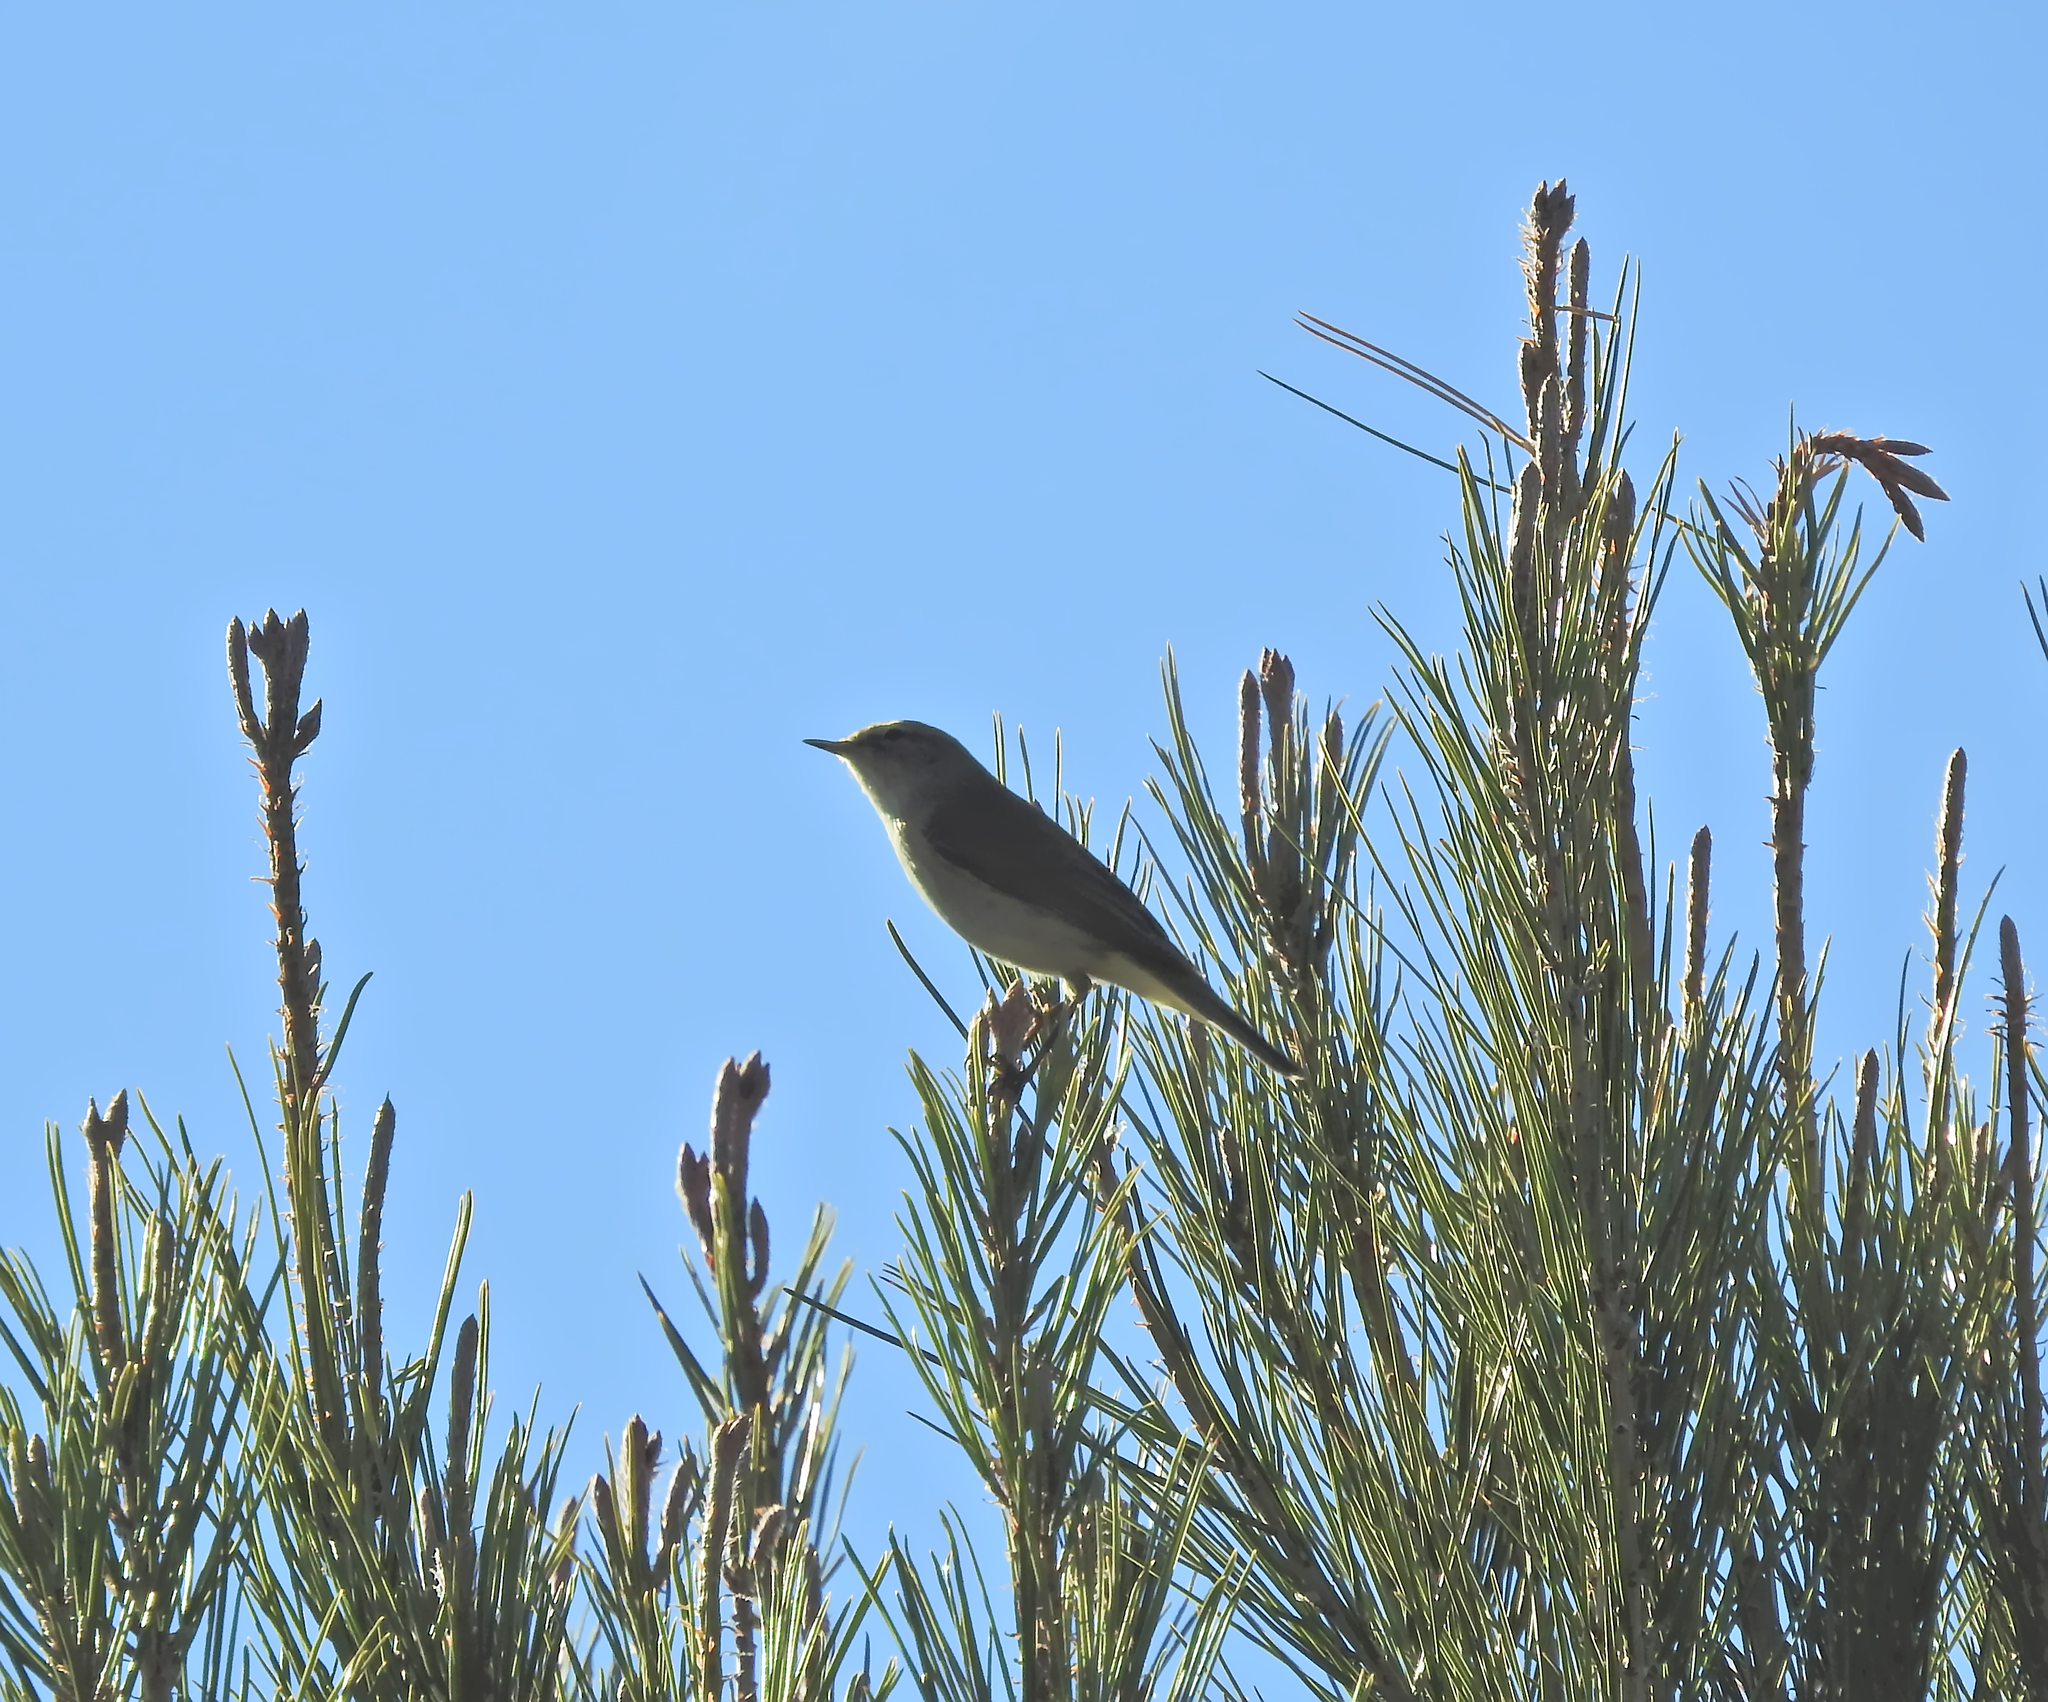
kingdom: Animalia
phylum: Chordata
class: Aves
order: Passeriformes
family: Phylloscopidae
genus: Phylloscopus
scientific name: Phylloscopus collybita
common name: Common chiffchaff
